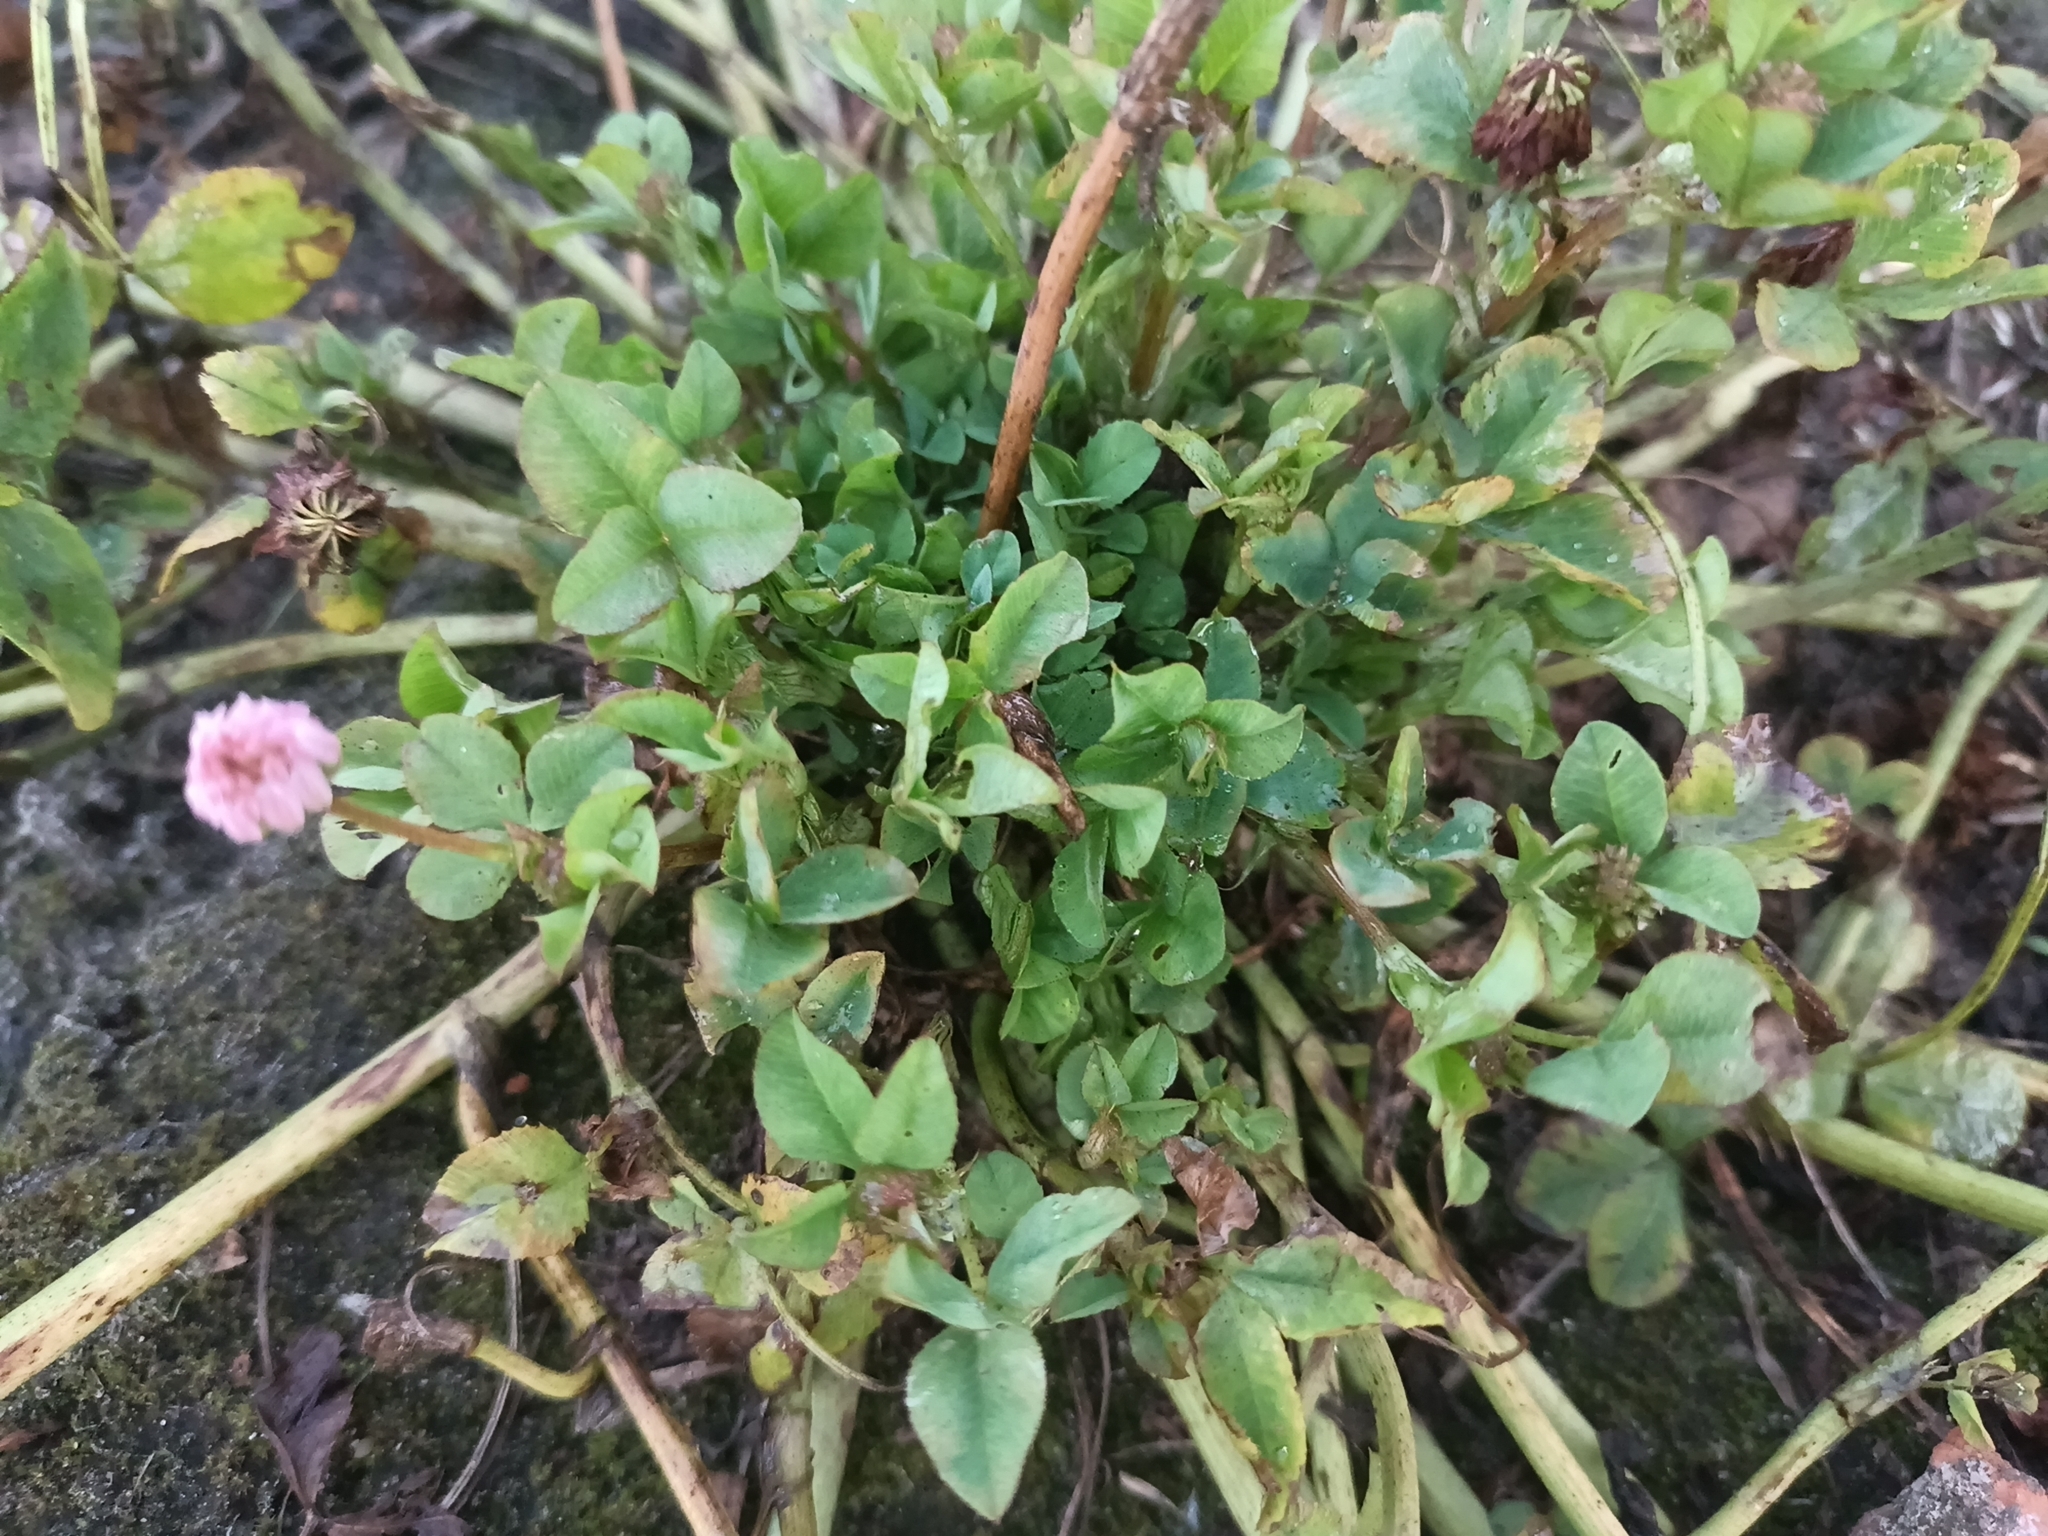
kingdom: Plantae
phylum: Tracheophyta
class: Magnoliopsida
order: Fabales
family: Fabaceae
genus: Trifolium
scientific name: Trifolium hybridum
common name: Alsike clover
